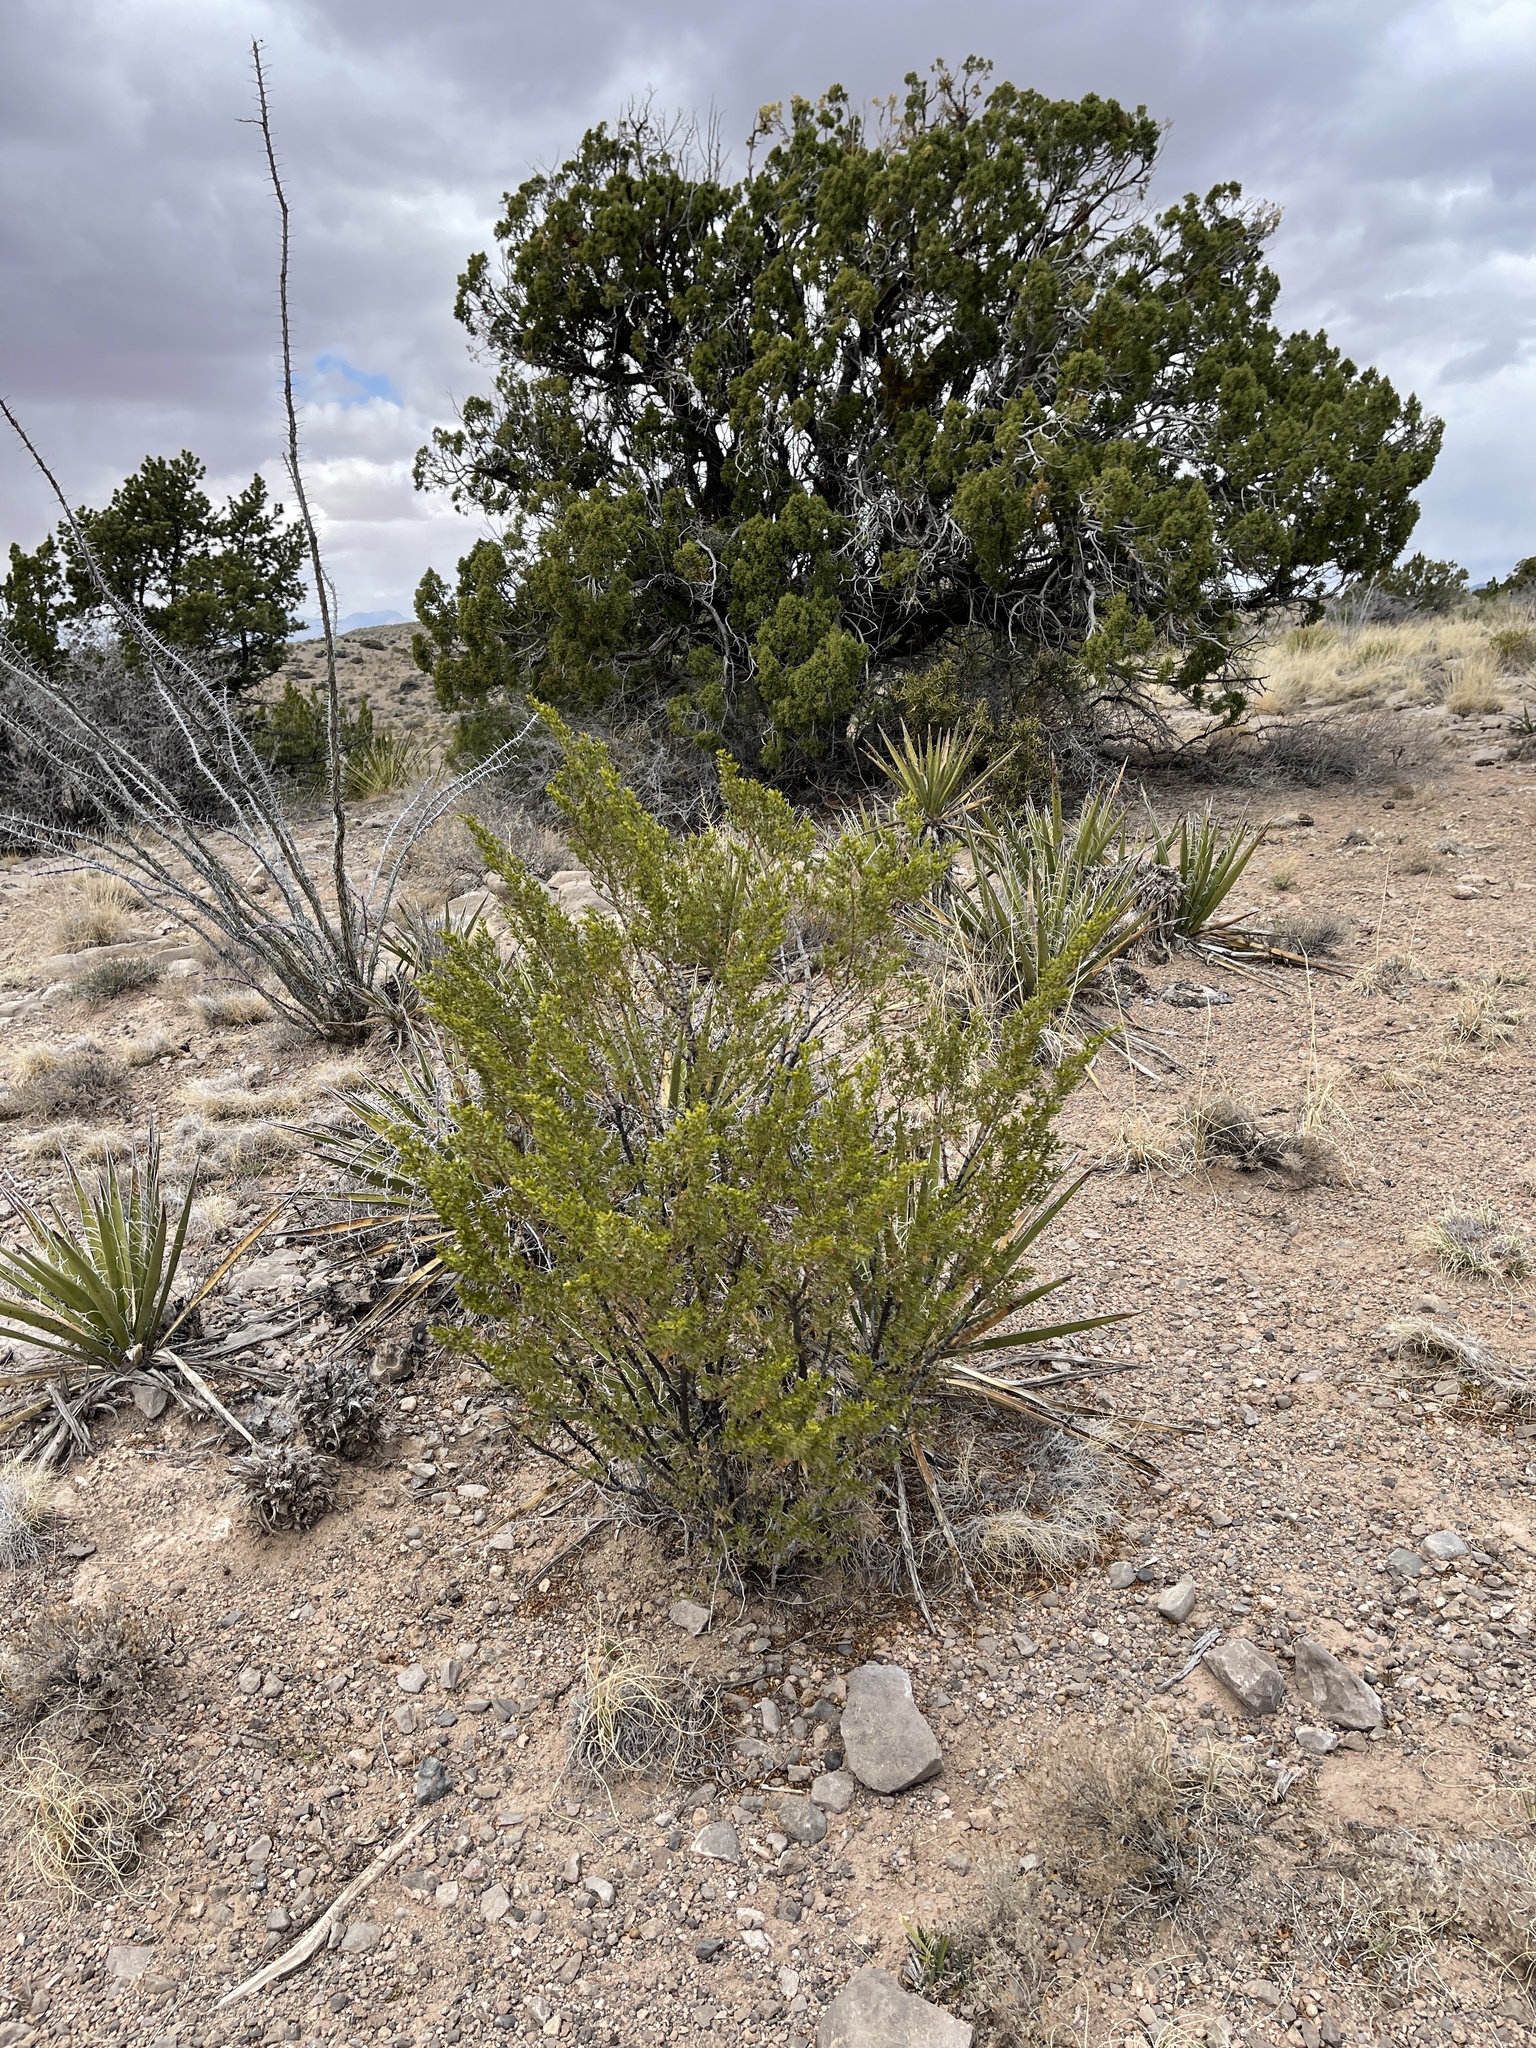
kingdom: Plantae
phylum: Tracheophyta
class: Magnoliopsida
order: Zygophyllales
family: Zygophyllaceae
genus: Larrea
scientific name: Larrea tridentata
